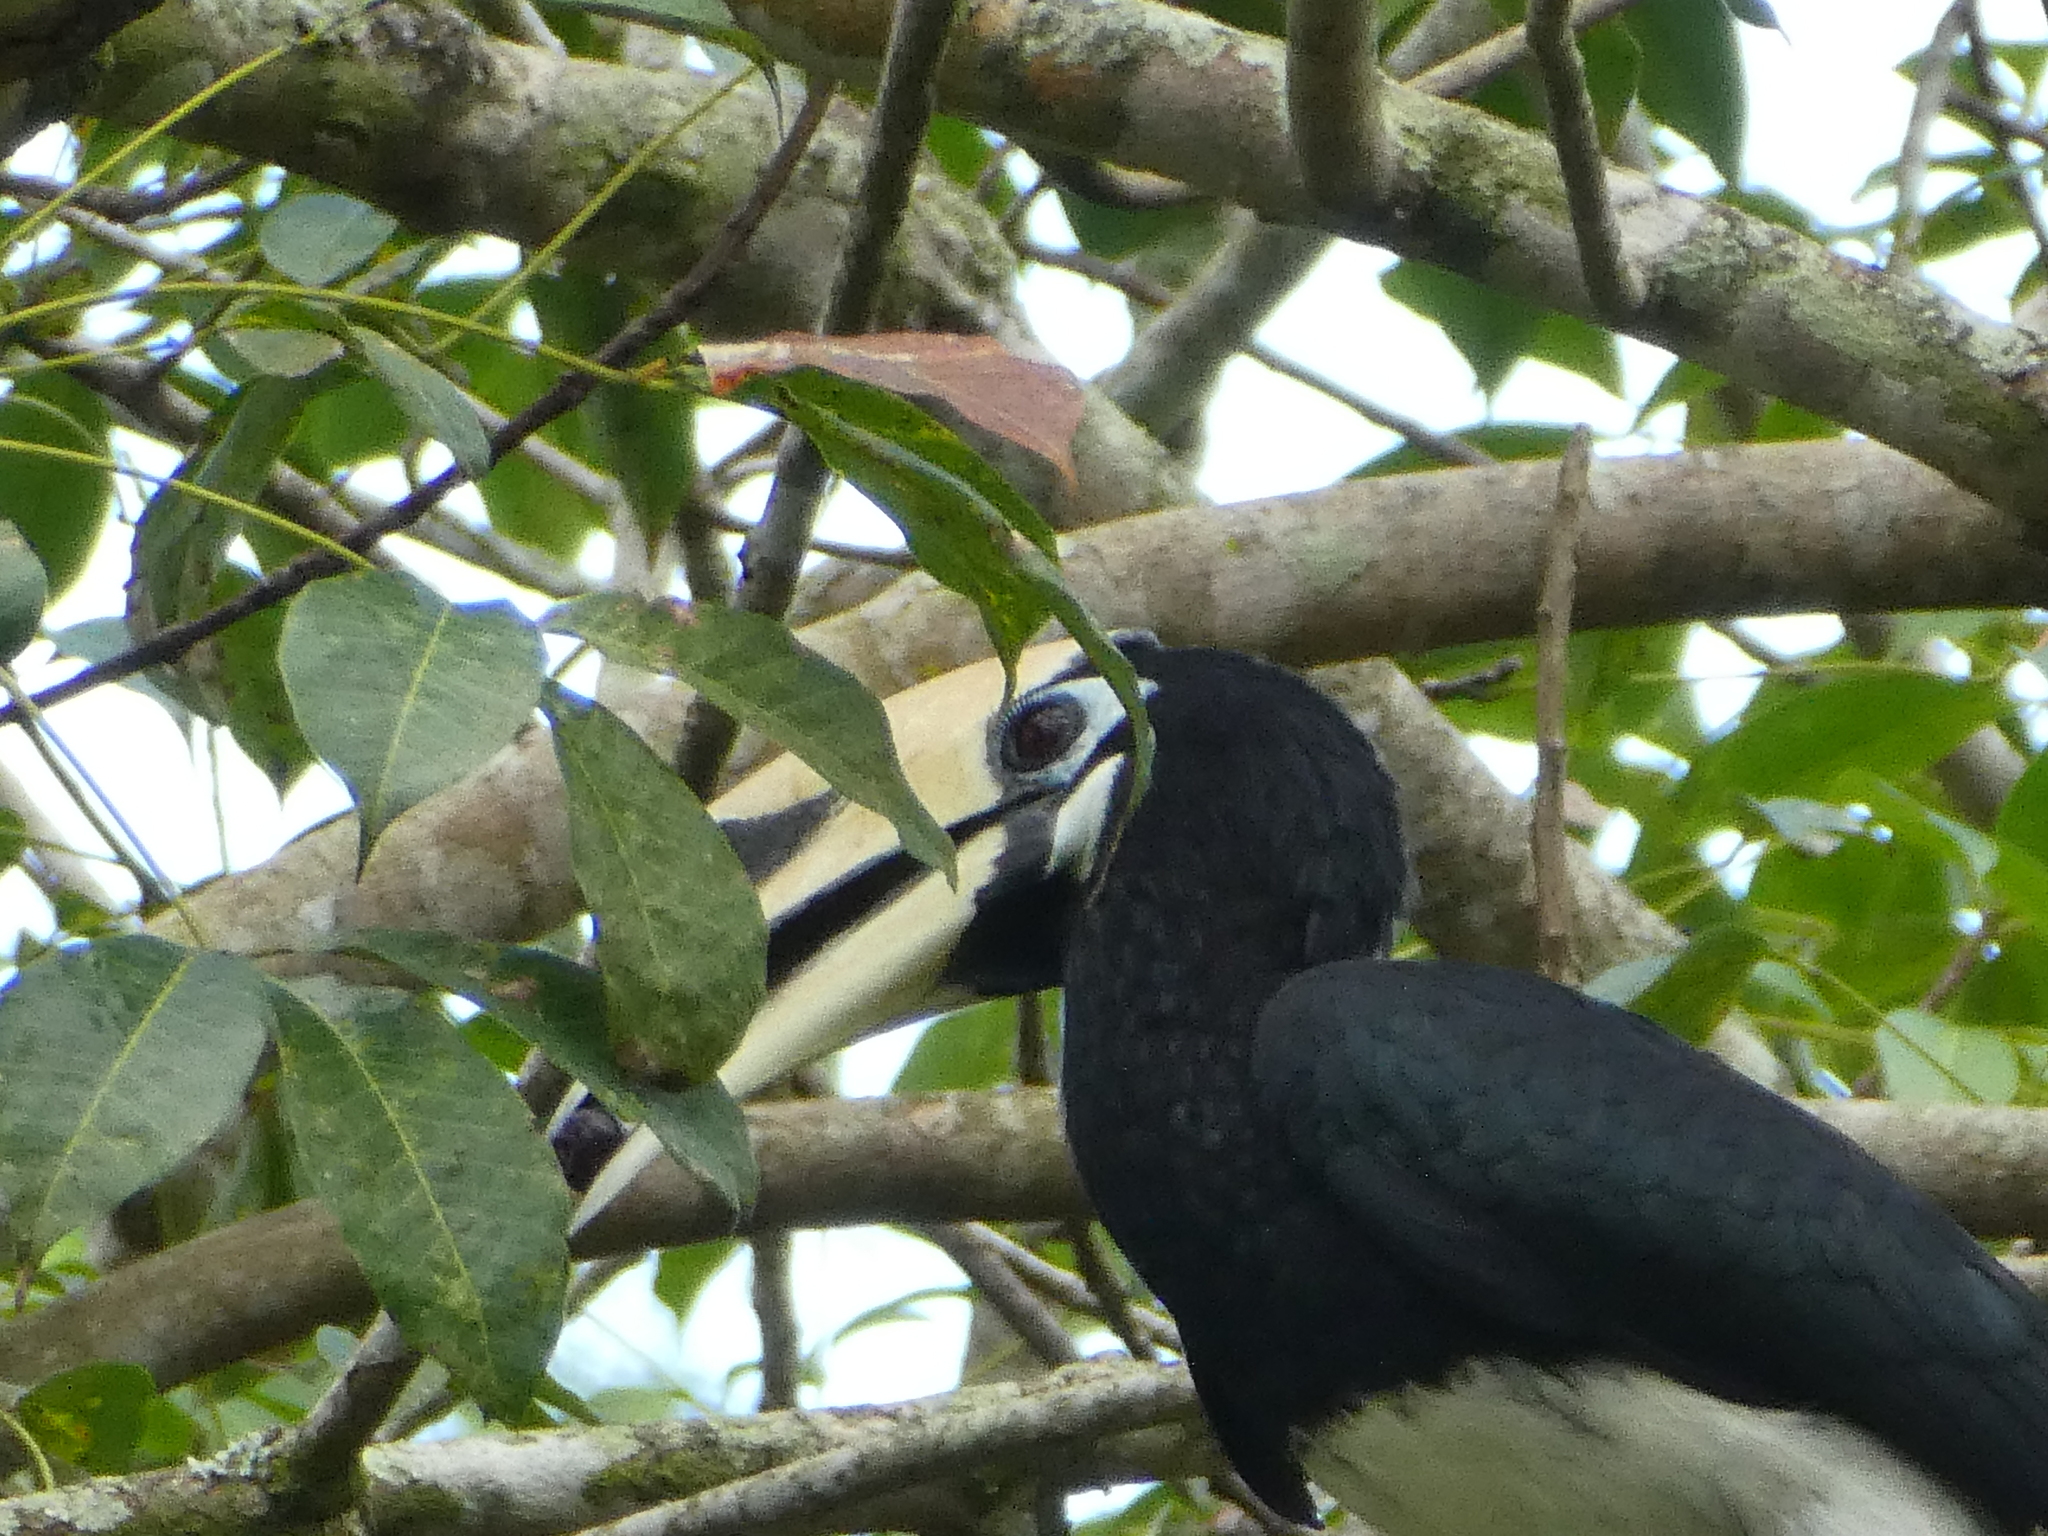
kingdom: Animalia
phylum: Chordata
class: Aves
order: Bucerotiformes
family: Bucerotidae
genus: Anthracoceros
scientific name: Anthracoceros albirostris
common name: Oriental pied-hornbill
